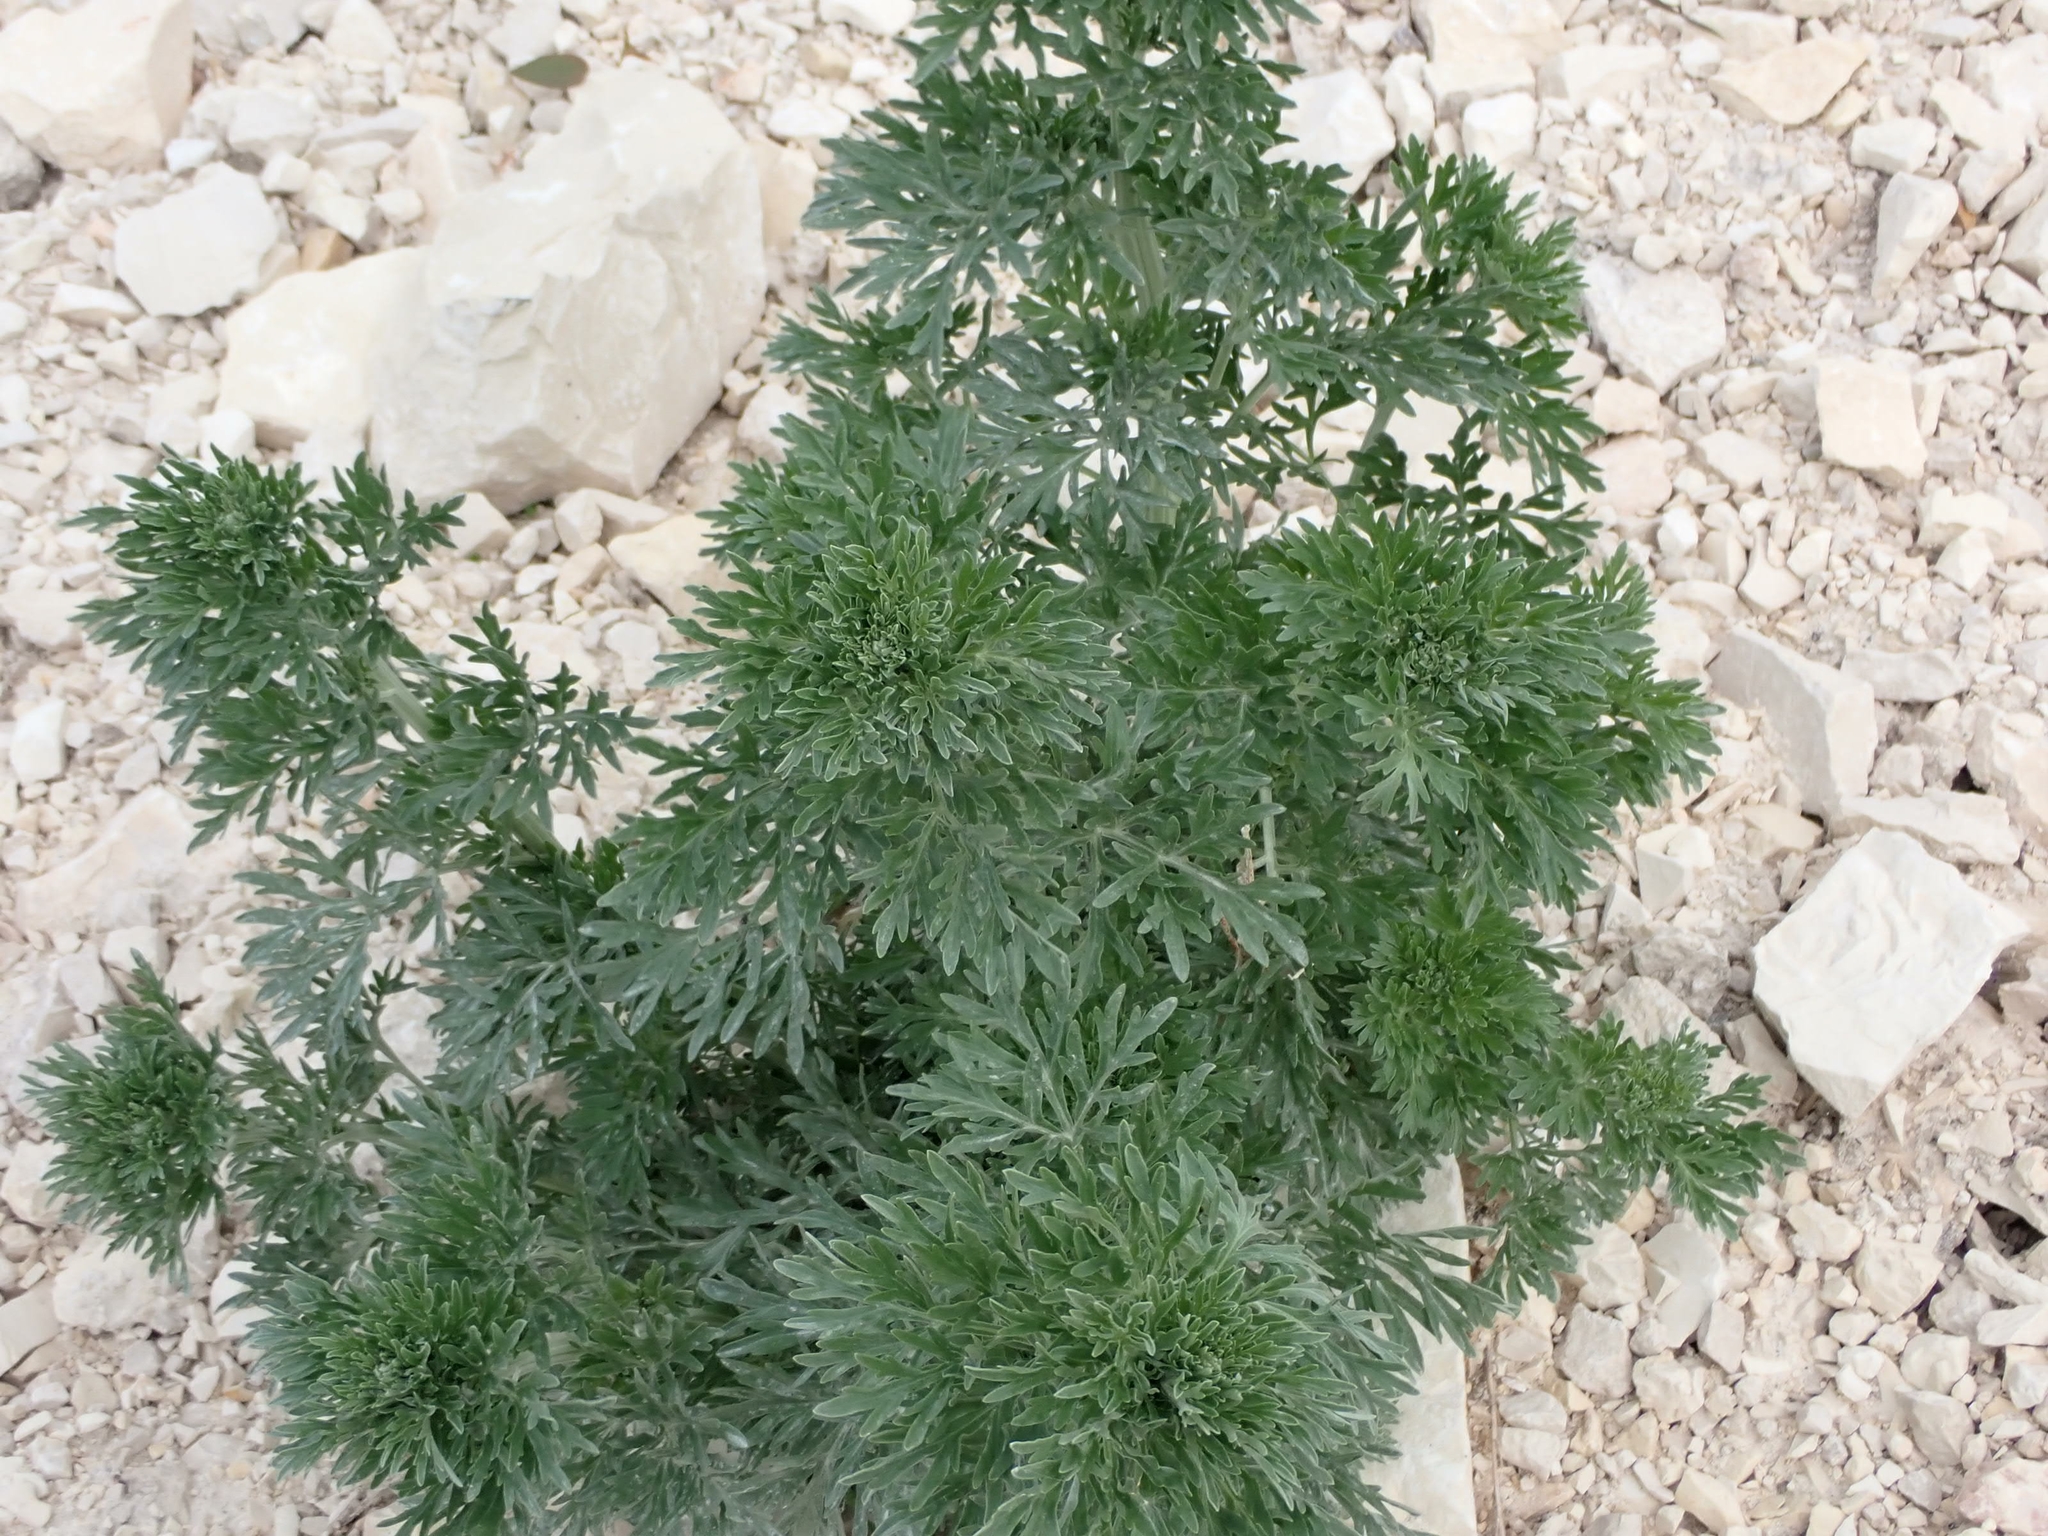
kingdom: Plantae
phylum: Tracheophyta
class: Magnoliopsida
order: Asterales
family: Asteraceae
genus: Artemisia
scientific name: Artemisia absinthium
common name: Wormwood
